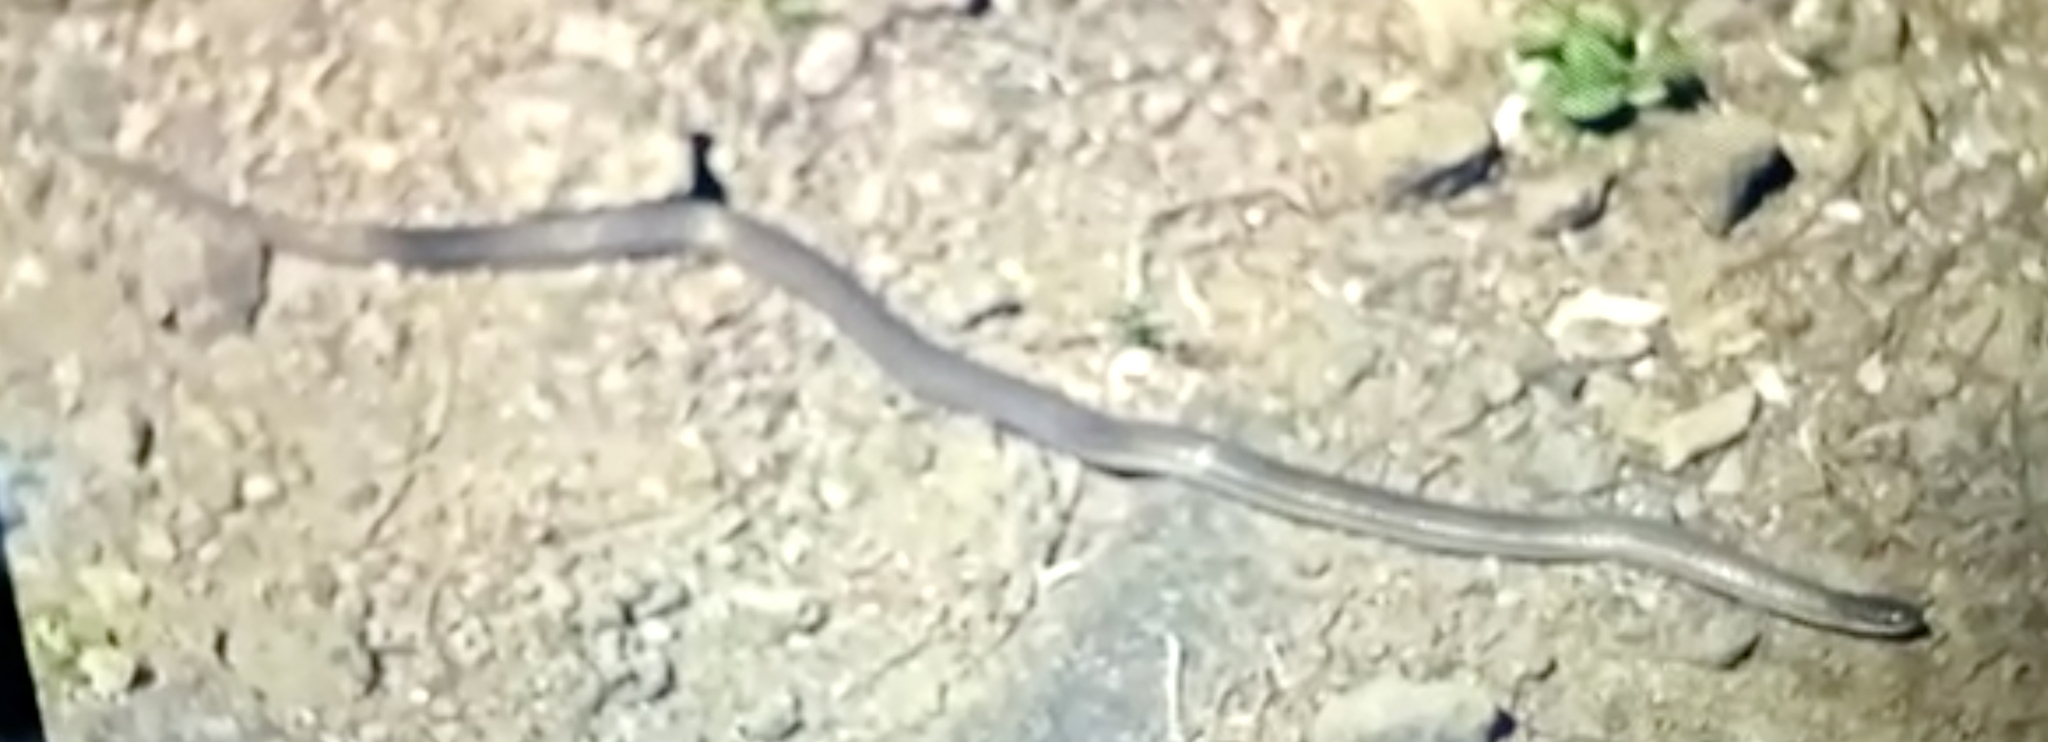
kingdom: Animalia
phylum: Chordata
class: Squamata
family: Colubridae
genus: Stenorrhina
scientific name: Stenorrhina freminvillei
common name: Blood snake
